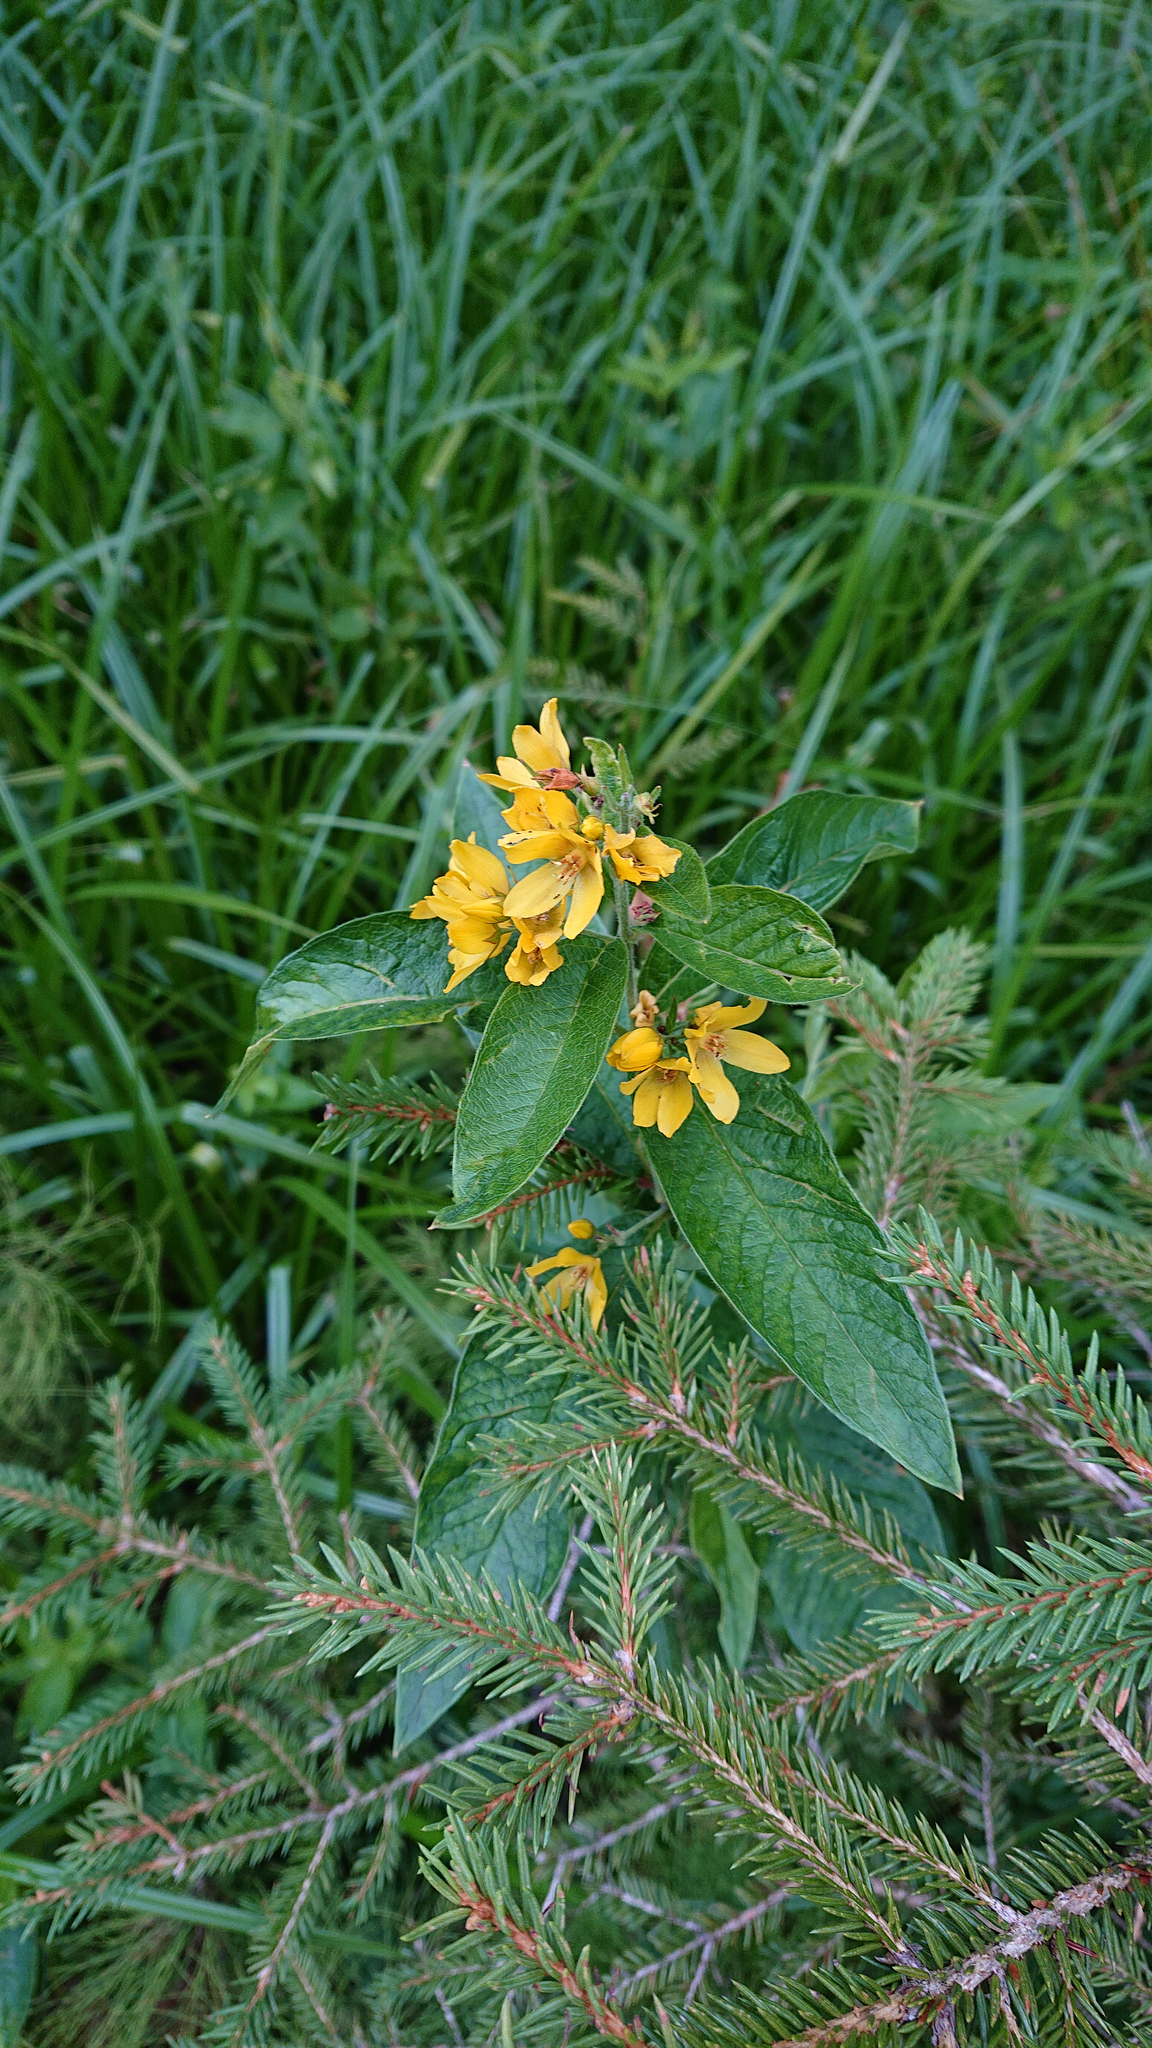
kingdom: Plantae
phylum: Tracheophyta
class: Magnoliopsida
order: Ericales
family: Primulaceae
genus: Lysimachia
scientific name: Lysimachia vulgaris
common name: Yellow loosestrife
